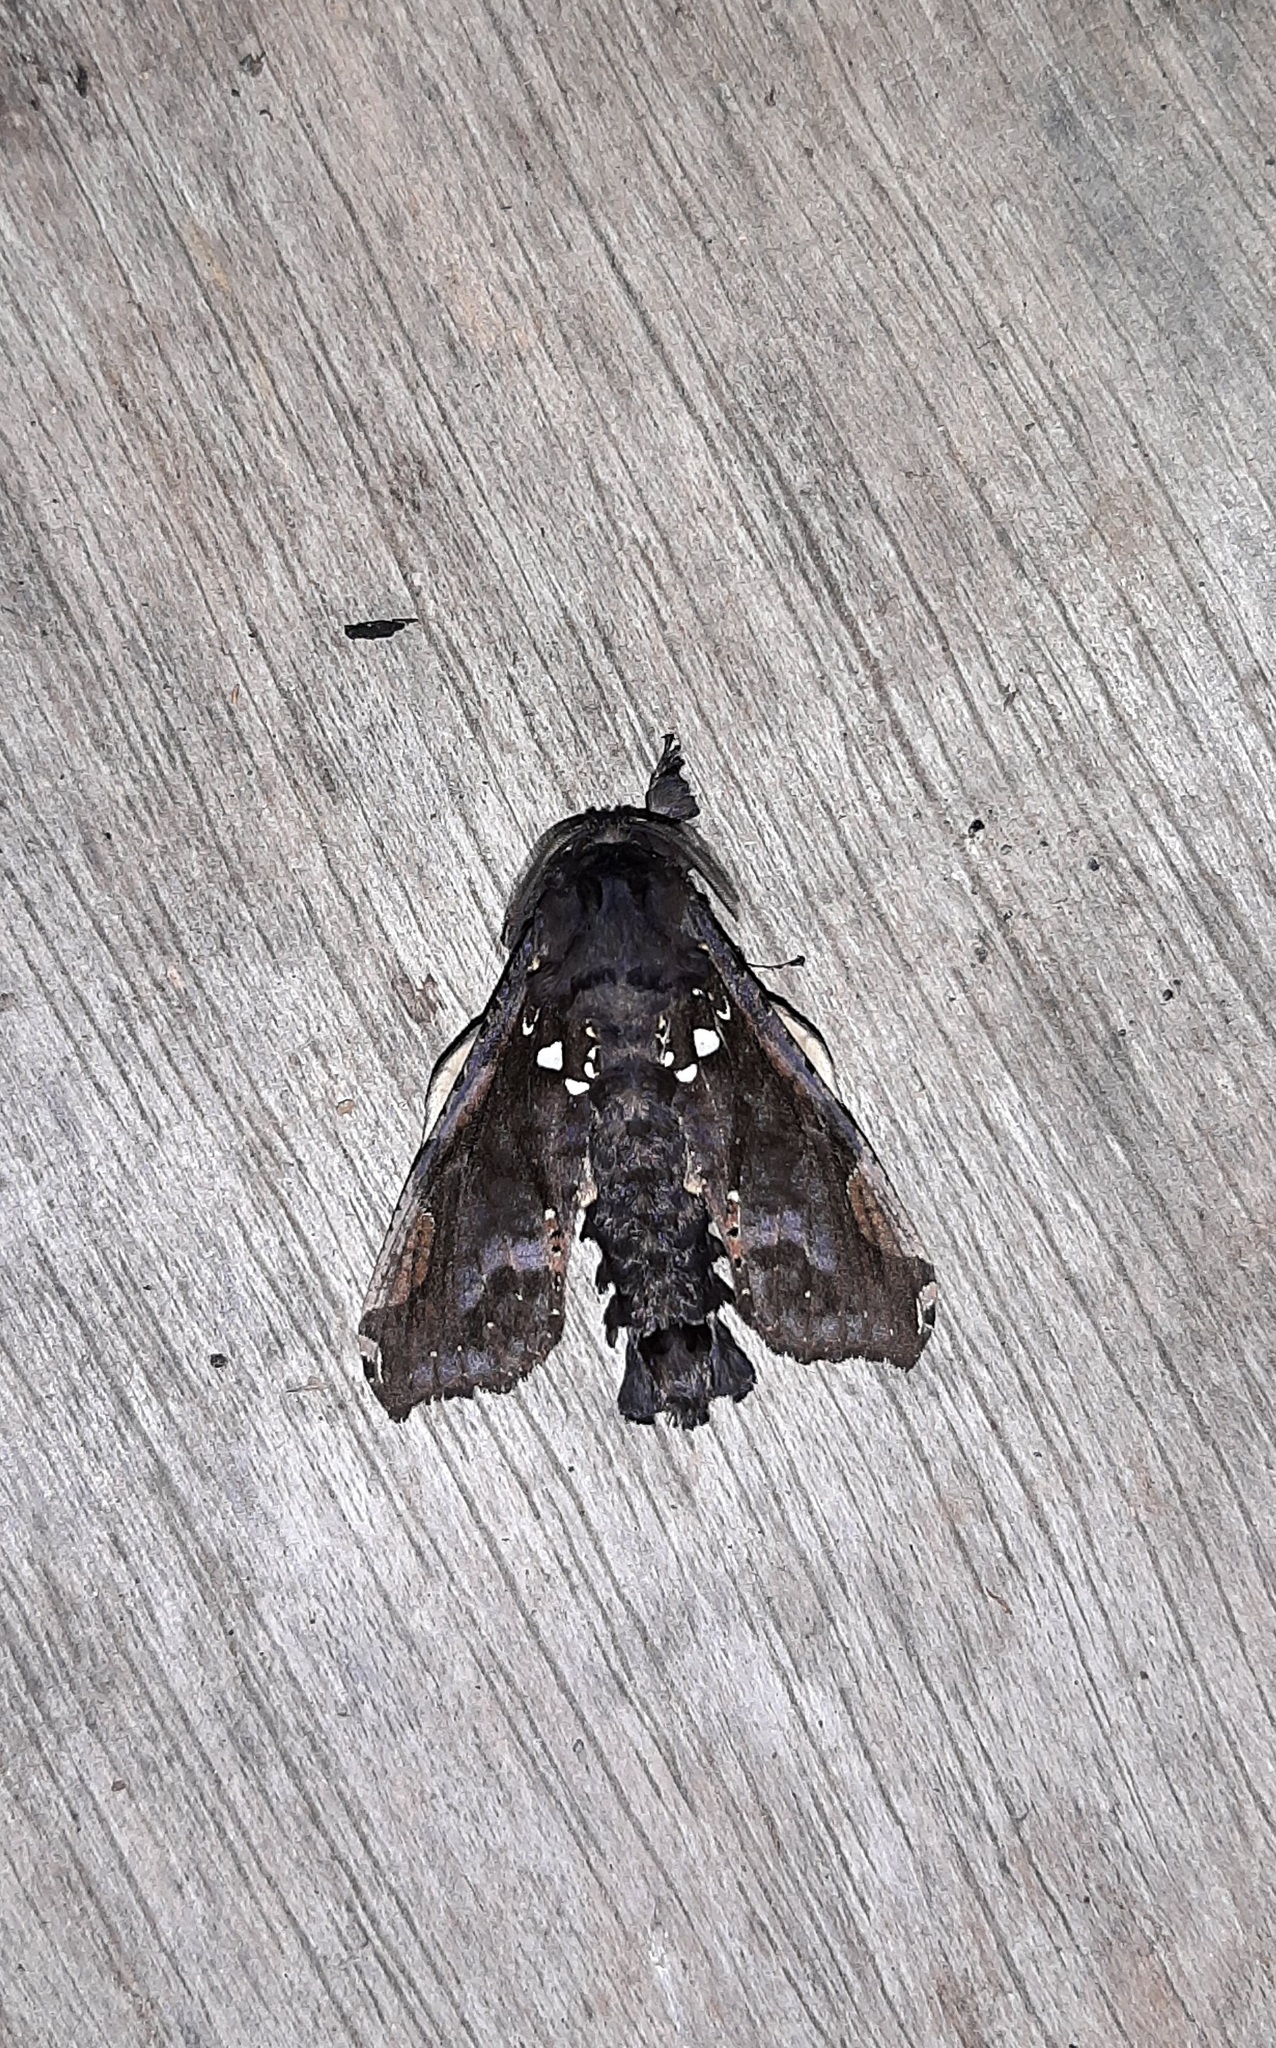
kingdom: Animalia
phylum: Arthropoda
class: Insecta
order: Lepidoptera
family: Cossidae
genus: Langsdorfia
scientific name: Langsdorfia franckii
